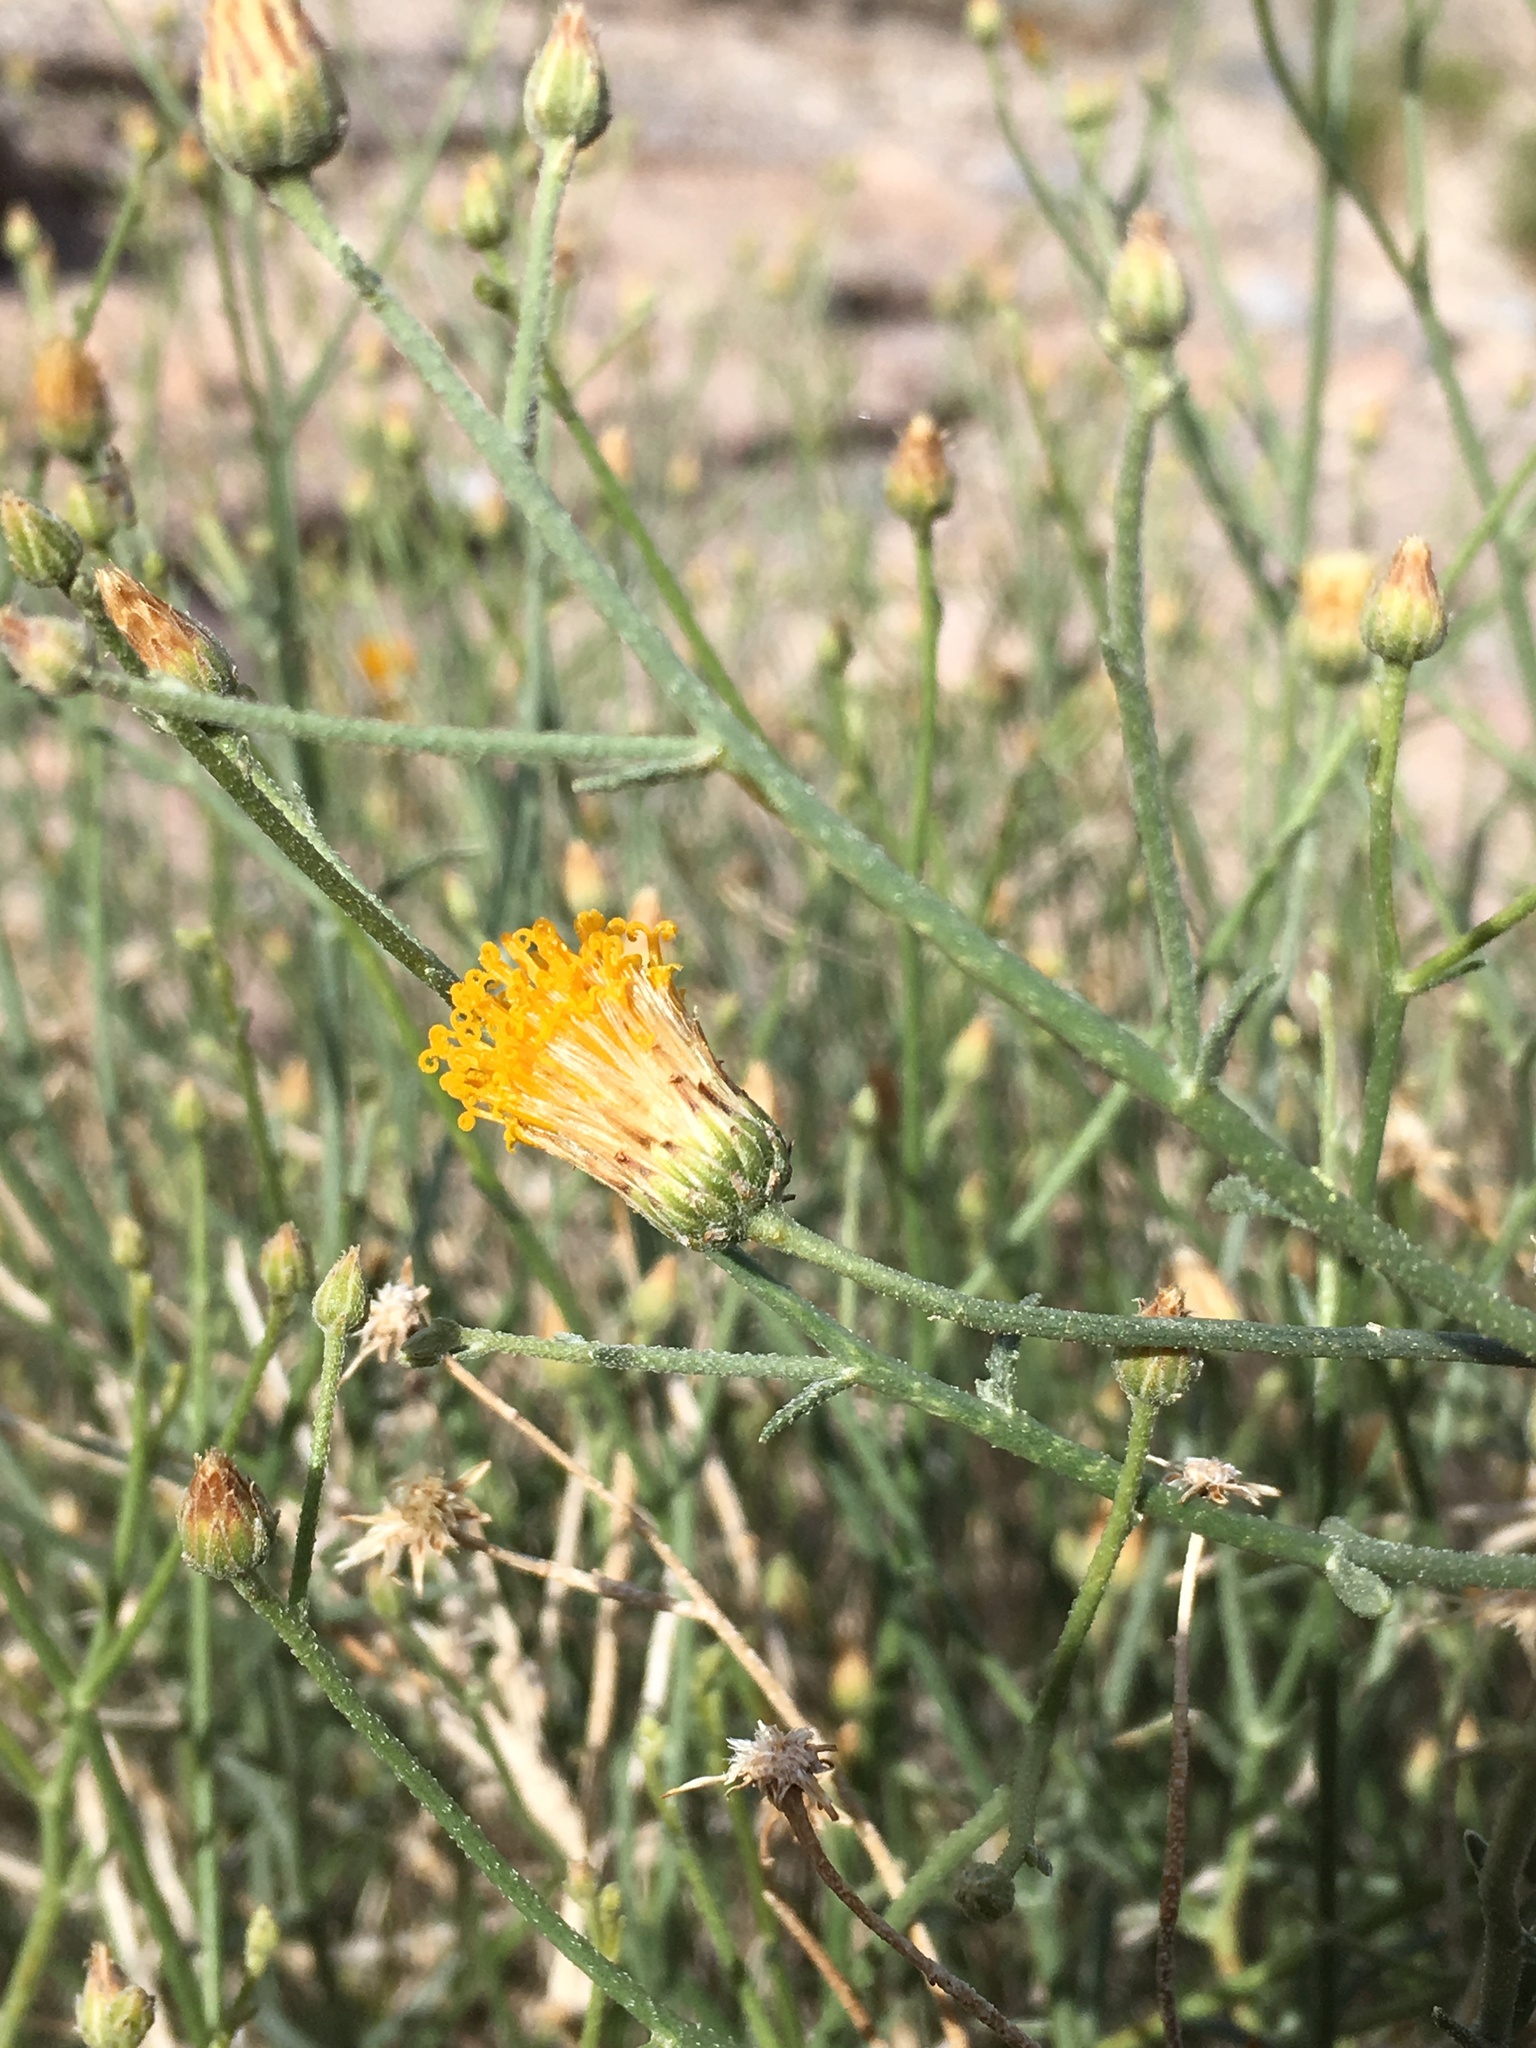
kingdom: Plantae
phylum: Tracheophyta
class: Magnoliopsida
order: Asterales
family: Asteraceae
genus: Bebbia
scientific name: Bebbia juncea
